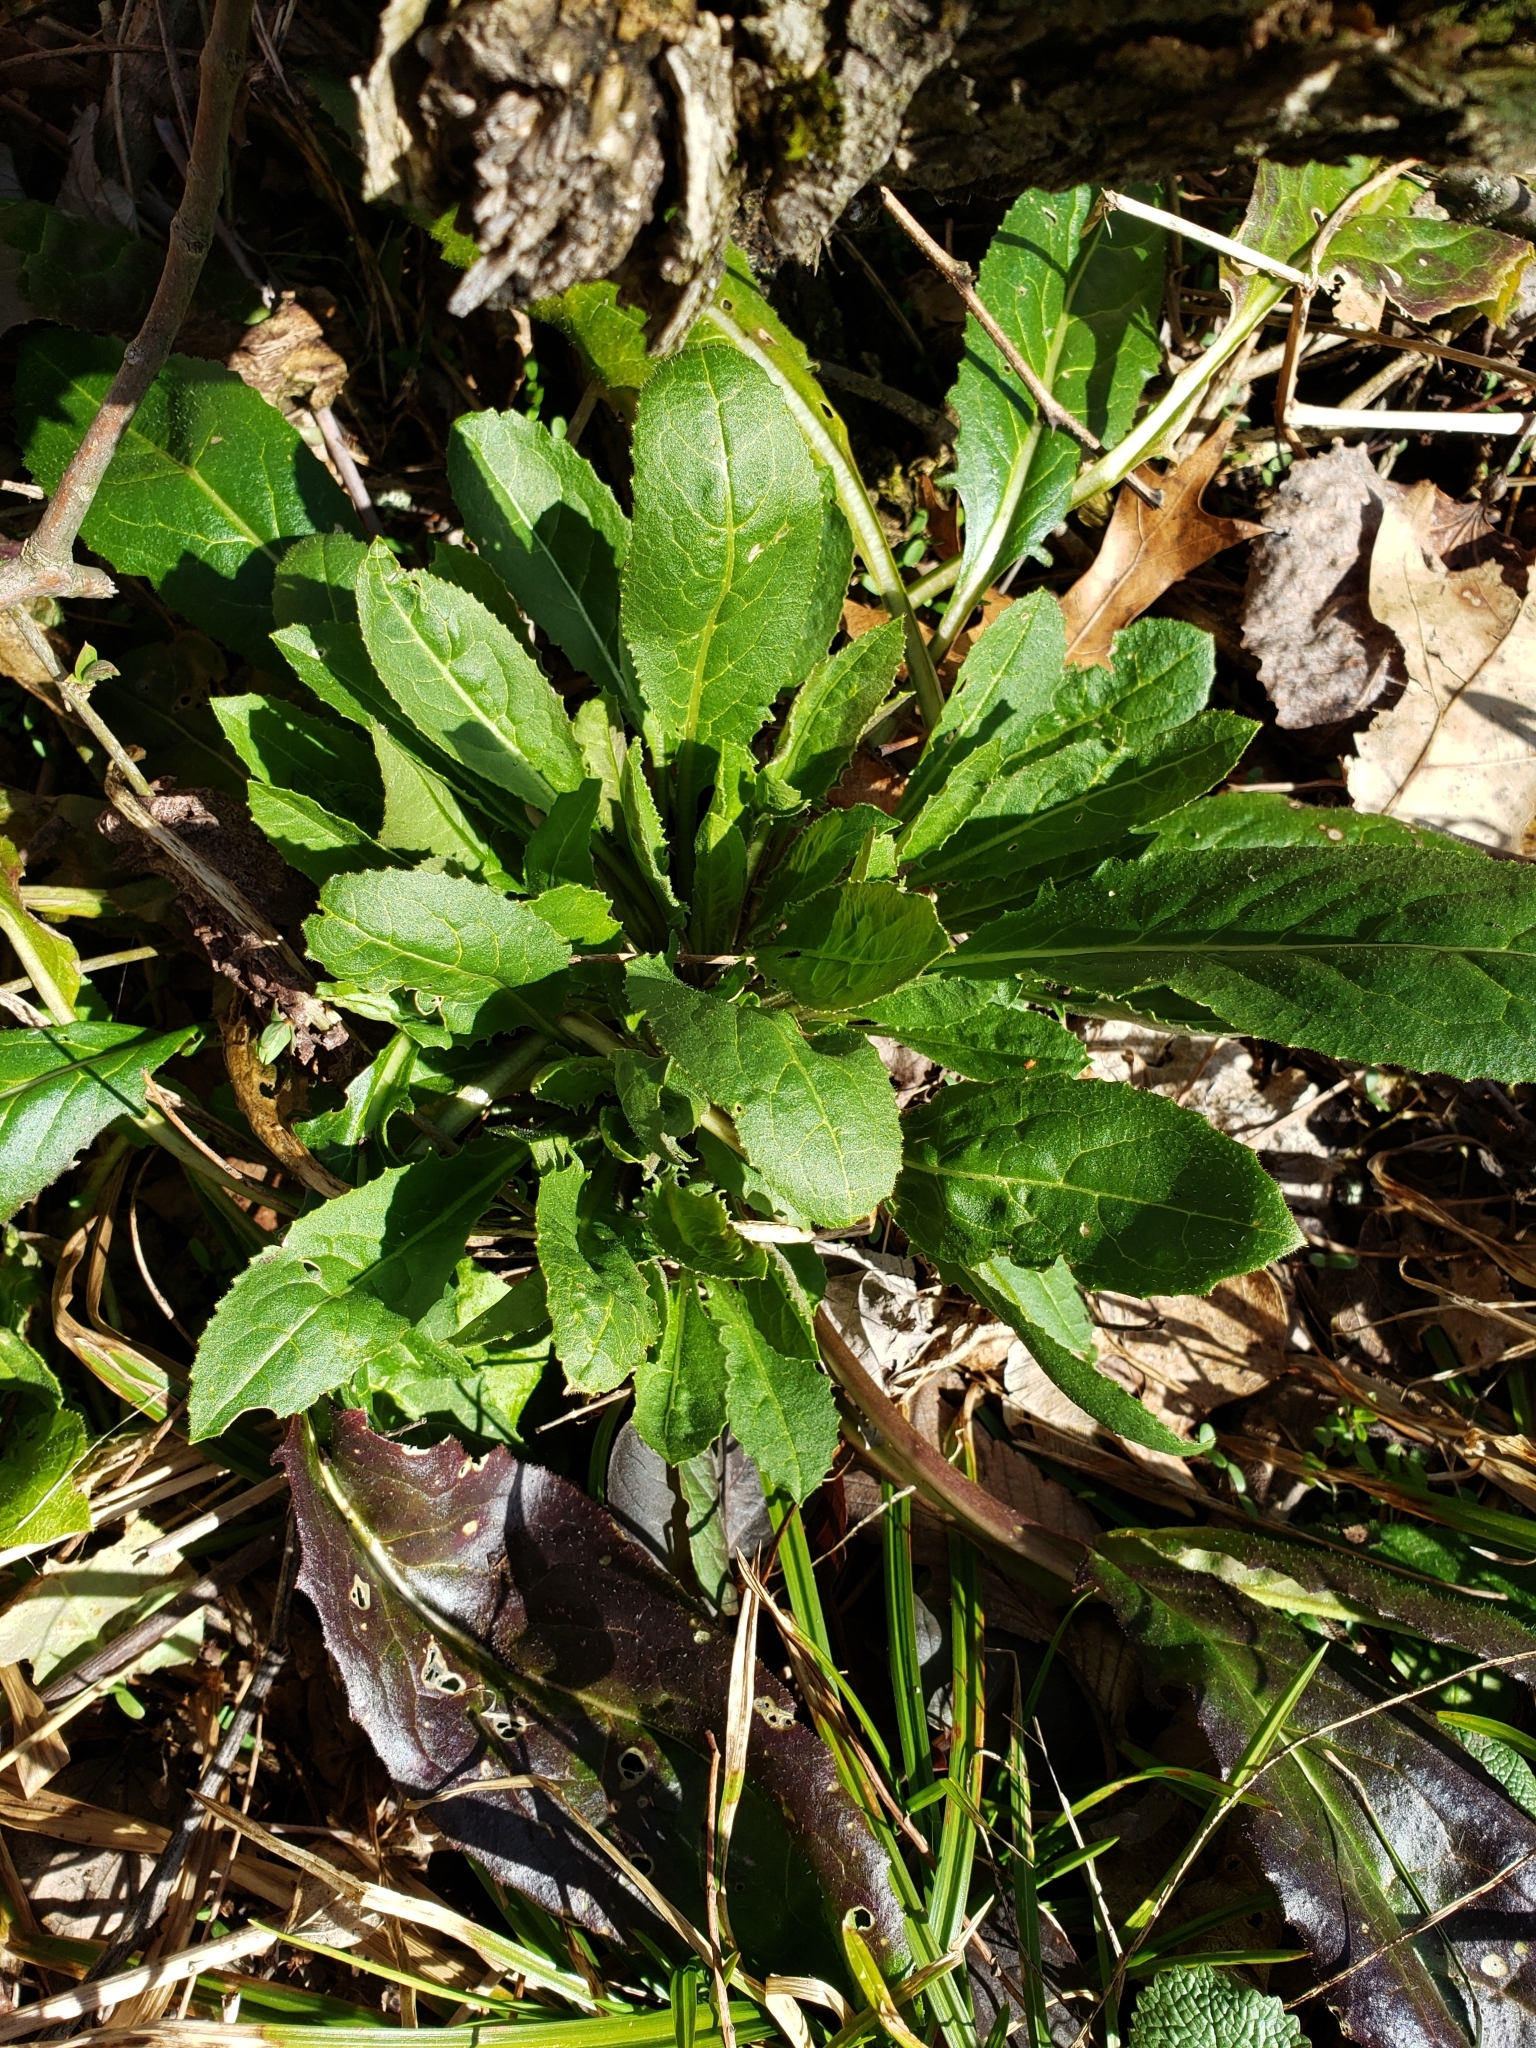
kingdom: Plantae
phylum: Tracheophyta
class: Magnoliopsida
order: Brassicales
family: Brassicaceae
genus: Hesperis
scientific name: Hesperis matronalis
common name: Dame's-violet
